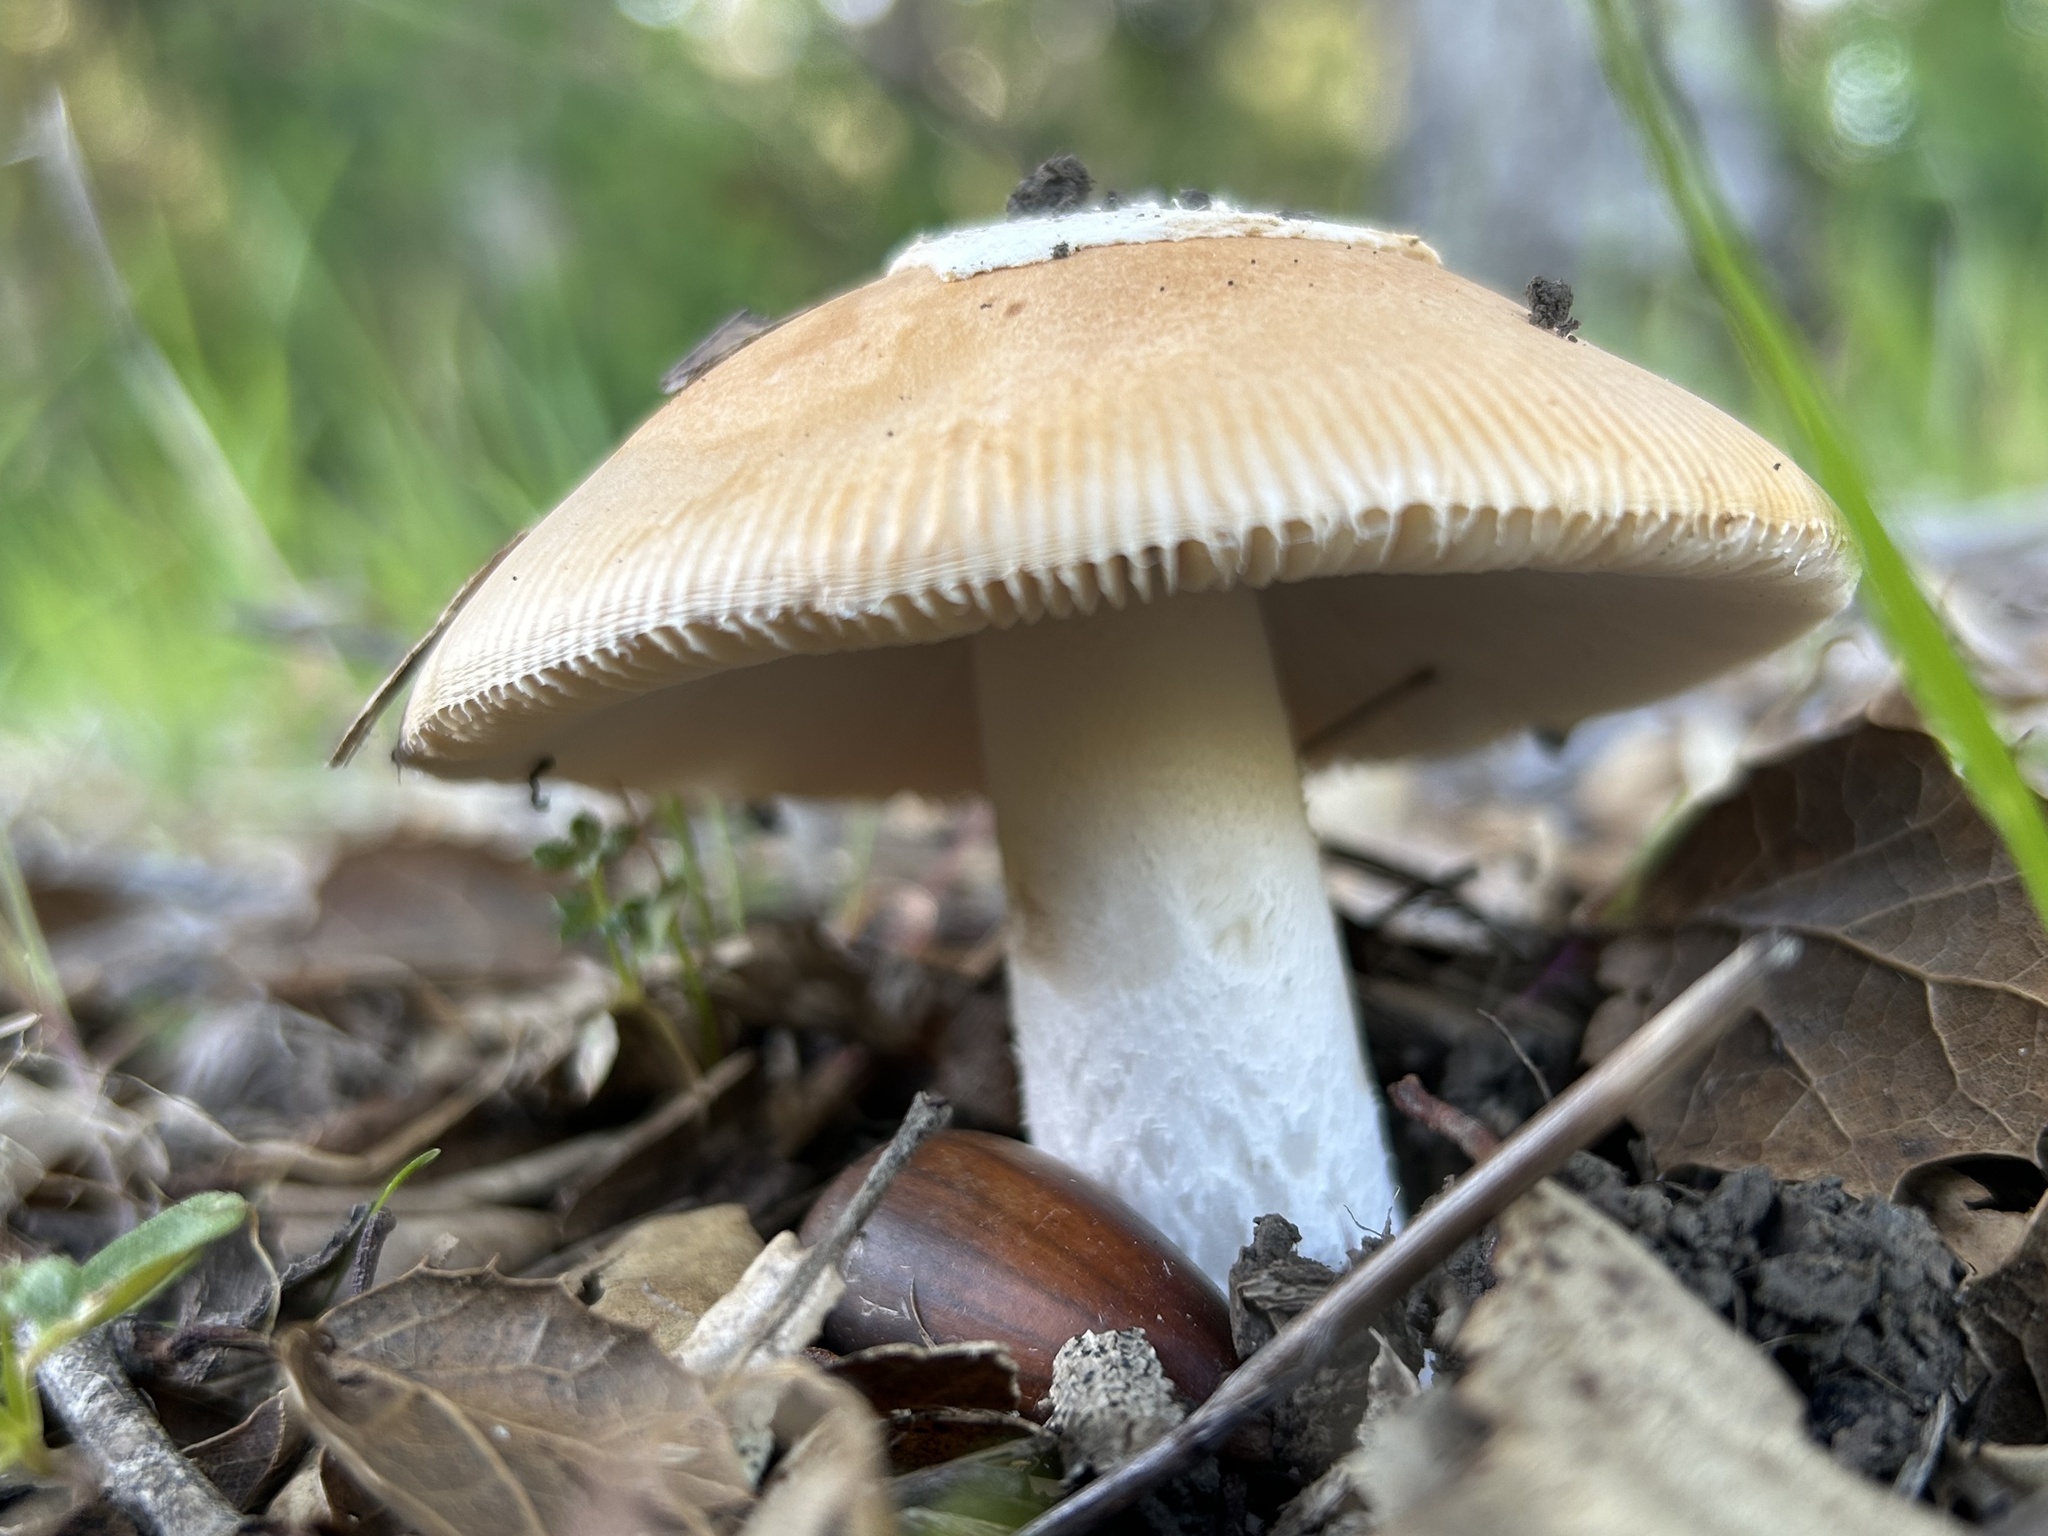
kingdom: Fungi
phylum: Basidiomycota
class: Agaricomycetes
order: Agaricales
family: Amanitaceae
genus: Amanita
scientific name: Amanita velosa
